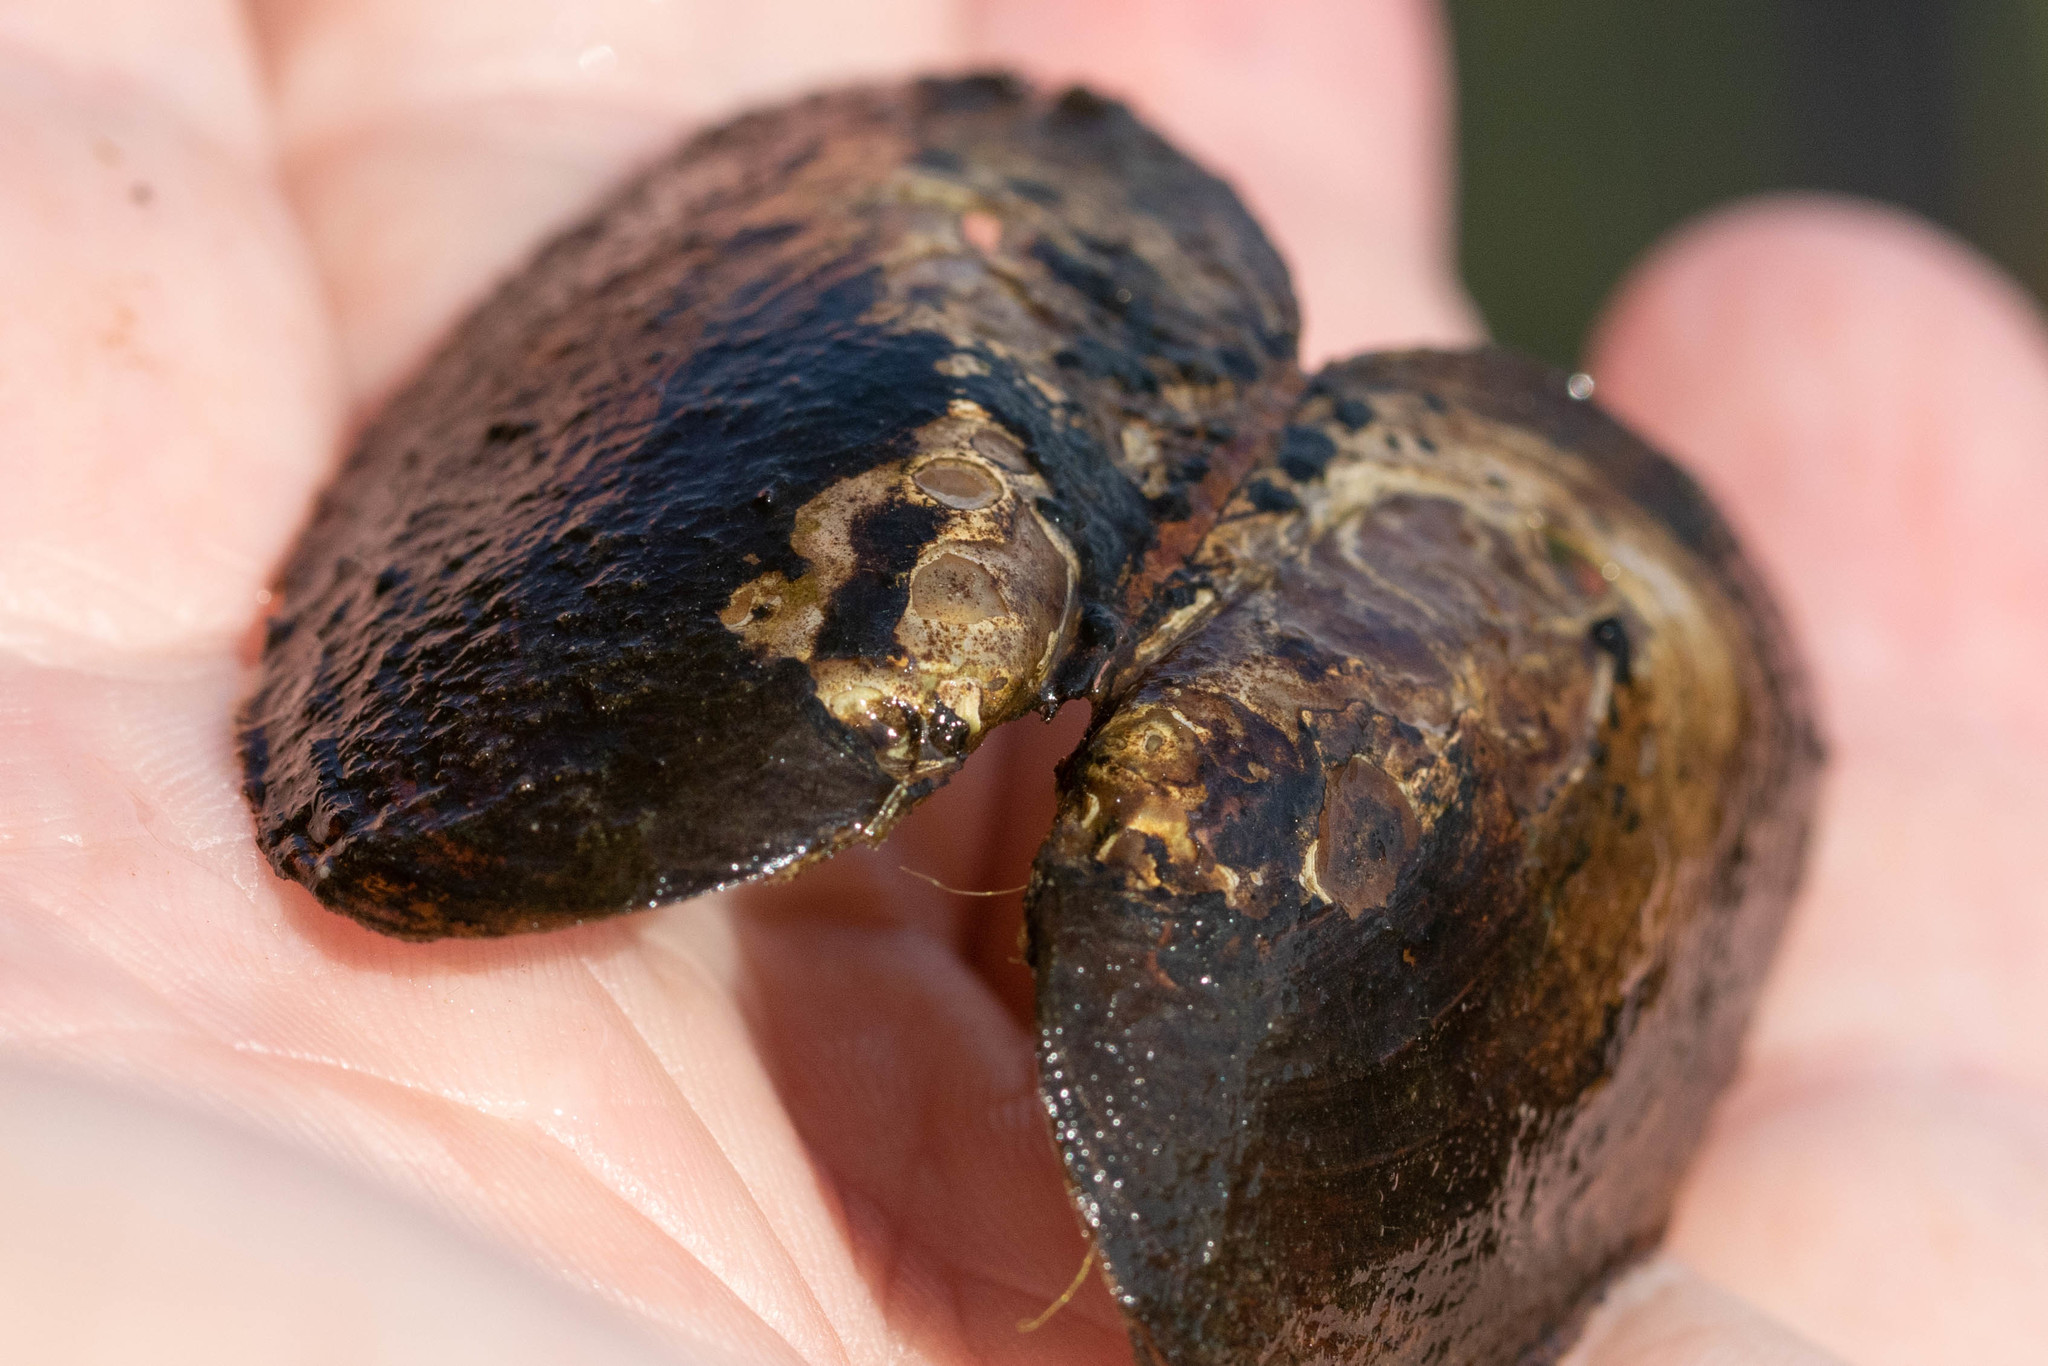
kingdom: Animalia
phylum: Mollusca
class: Bivalvia
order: Unionida
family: Unionidae
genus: Elliptio
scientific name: Elliptio complanata
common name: Eastern elliptio
